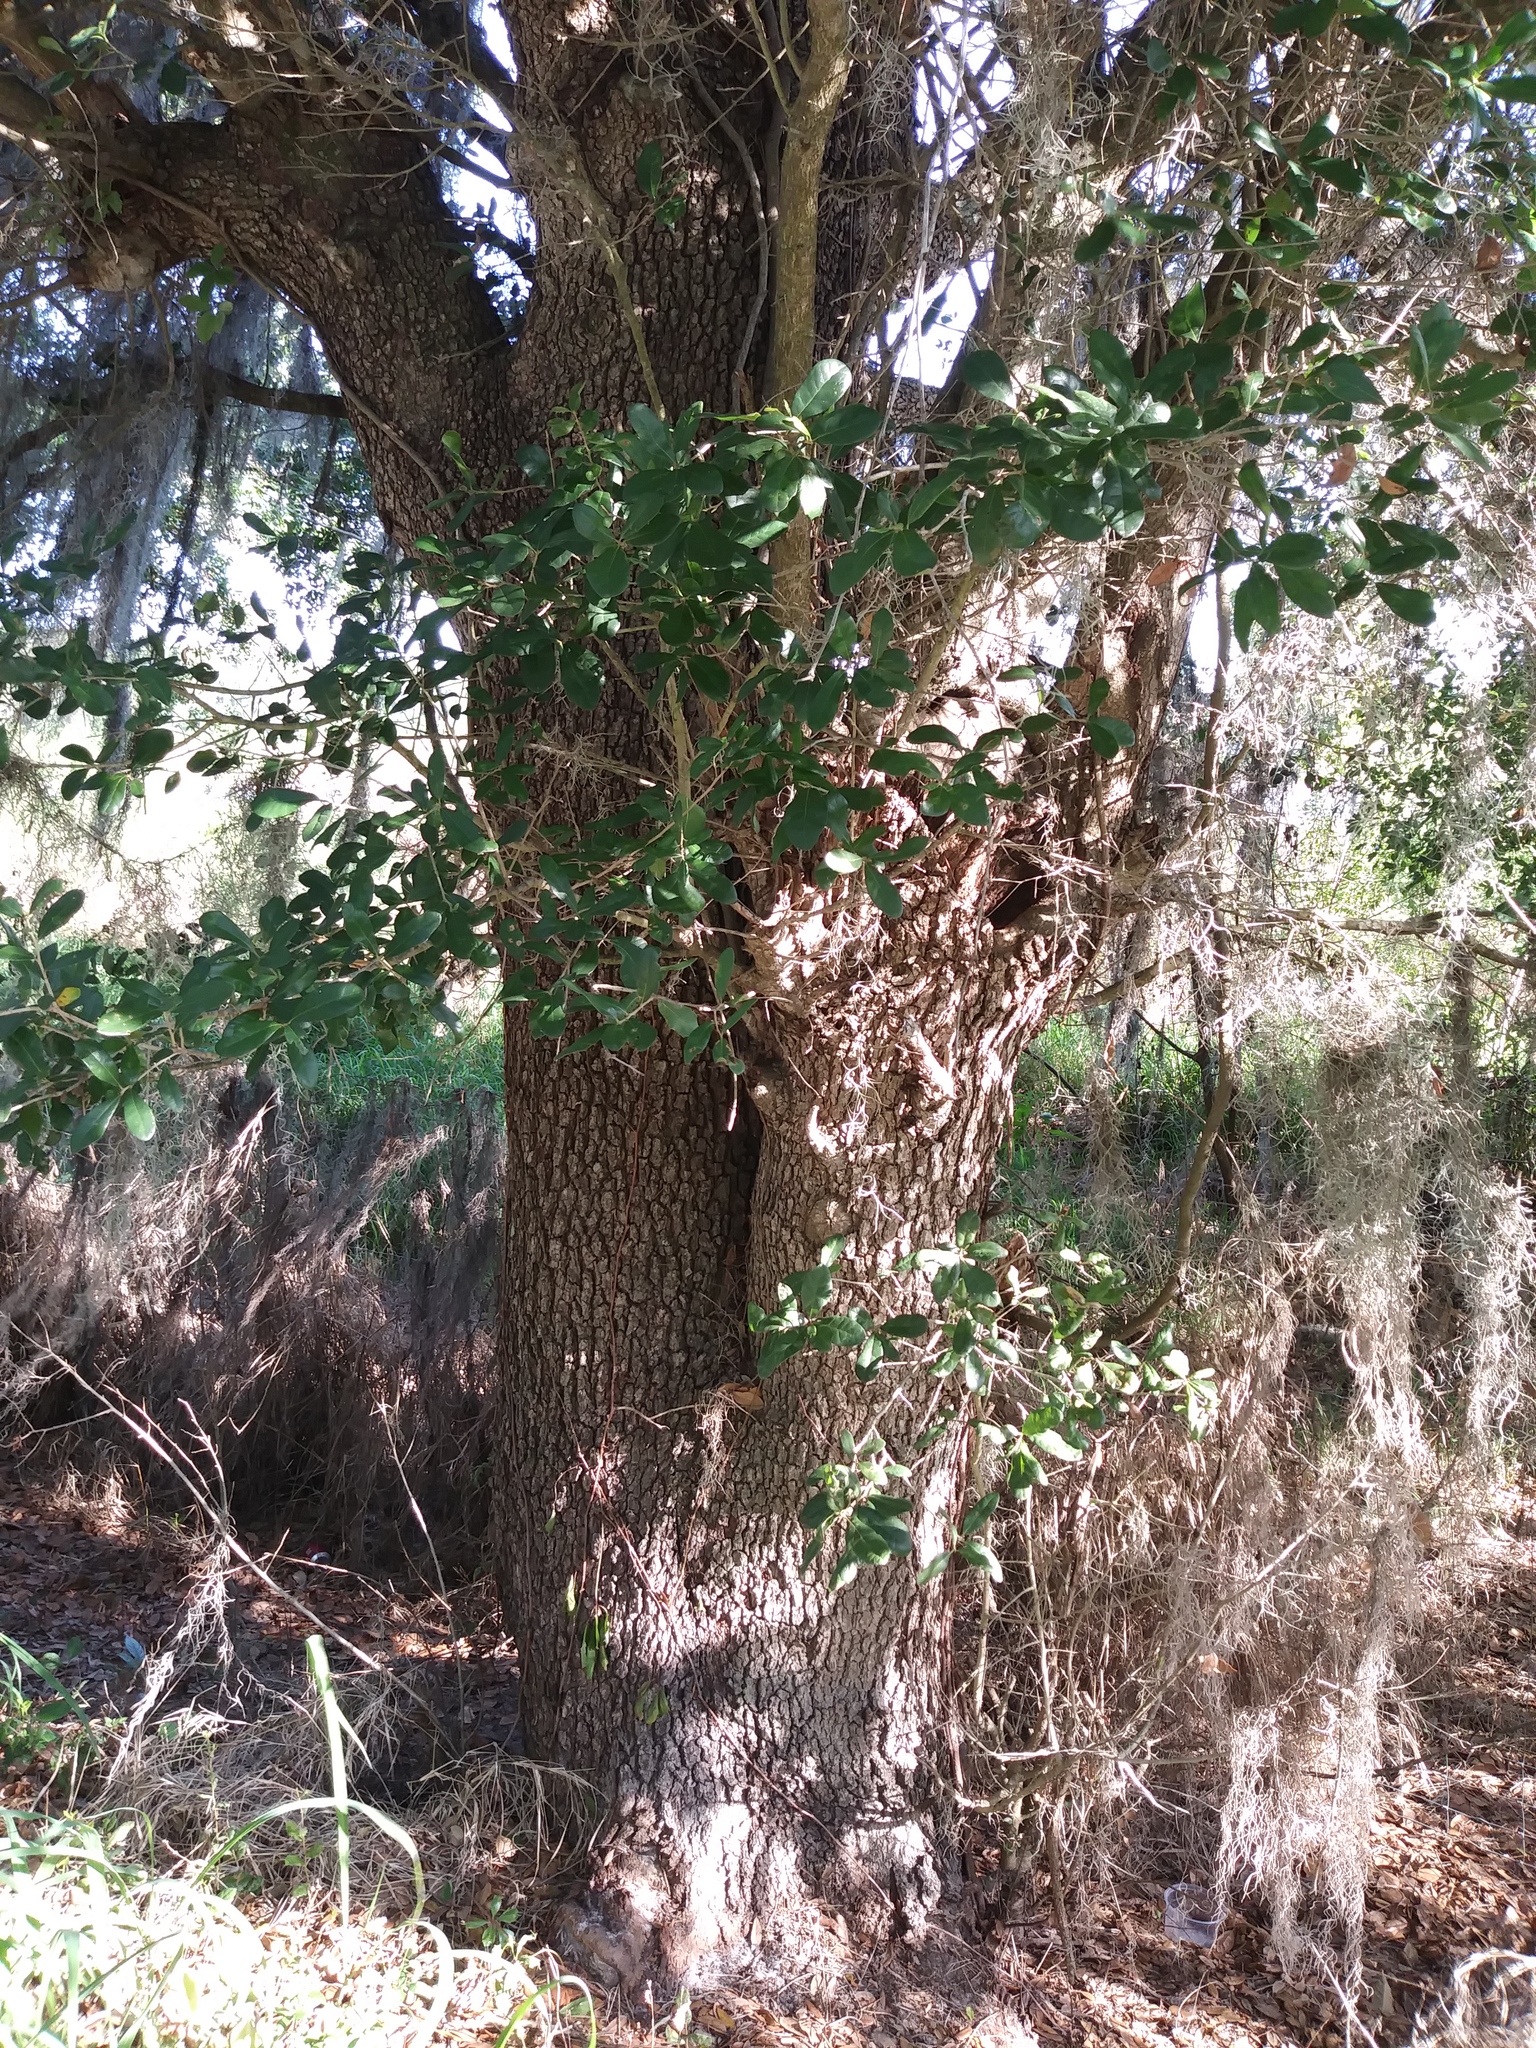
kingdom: Plantae
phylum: Tracheophyta
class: Magnoliopsida
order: Fagales
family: Fagaceae
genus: Quercus
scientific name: Quercus virginiana
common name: Southern live oak
